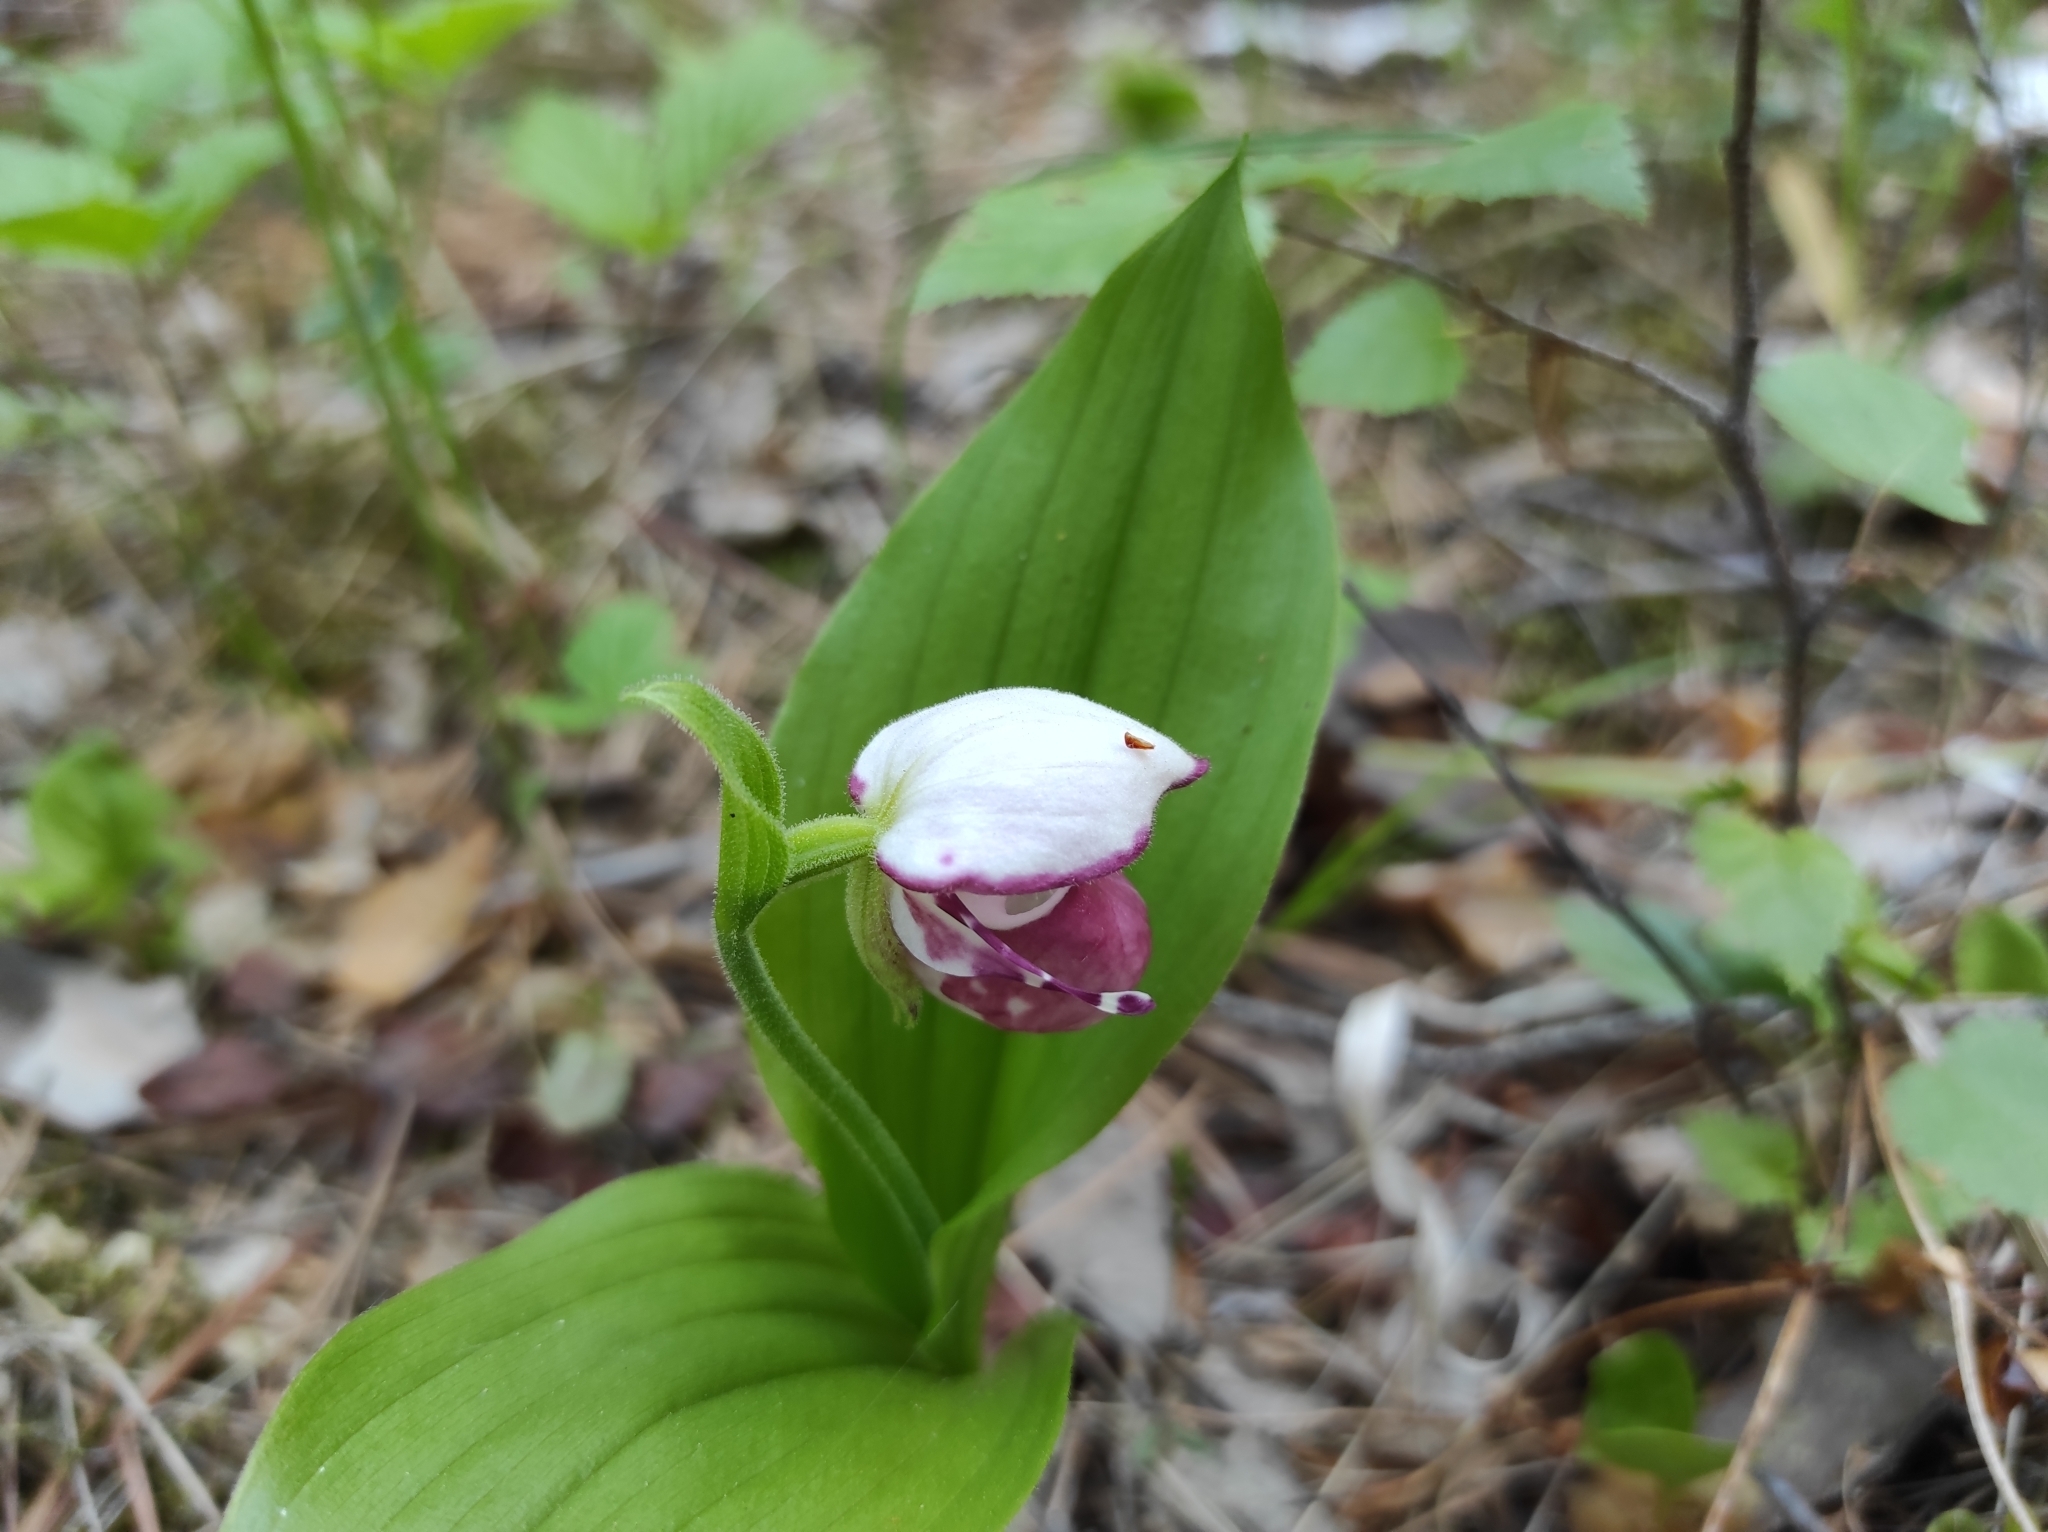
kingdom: Plantae
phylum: Tracheophyta
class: Liliopsida
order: Asparagales
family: Orchidaceae
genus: Cypripedium
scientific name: Cypripedium guttatum
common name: Pink lady slipper
